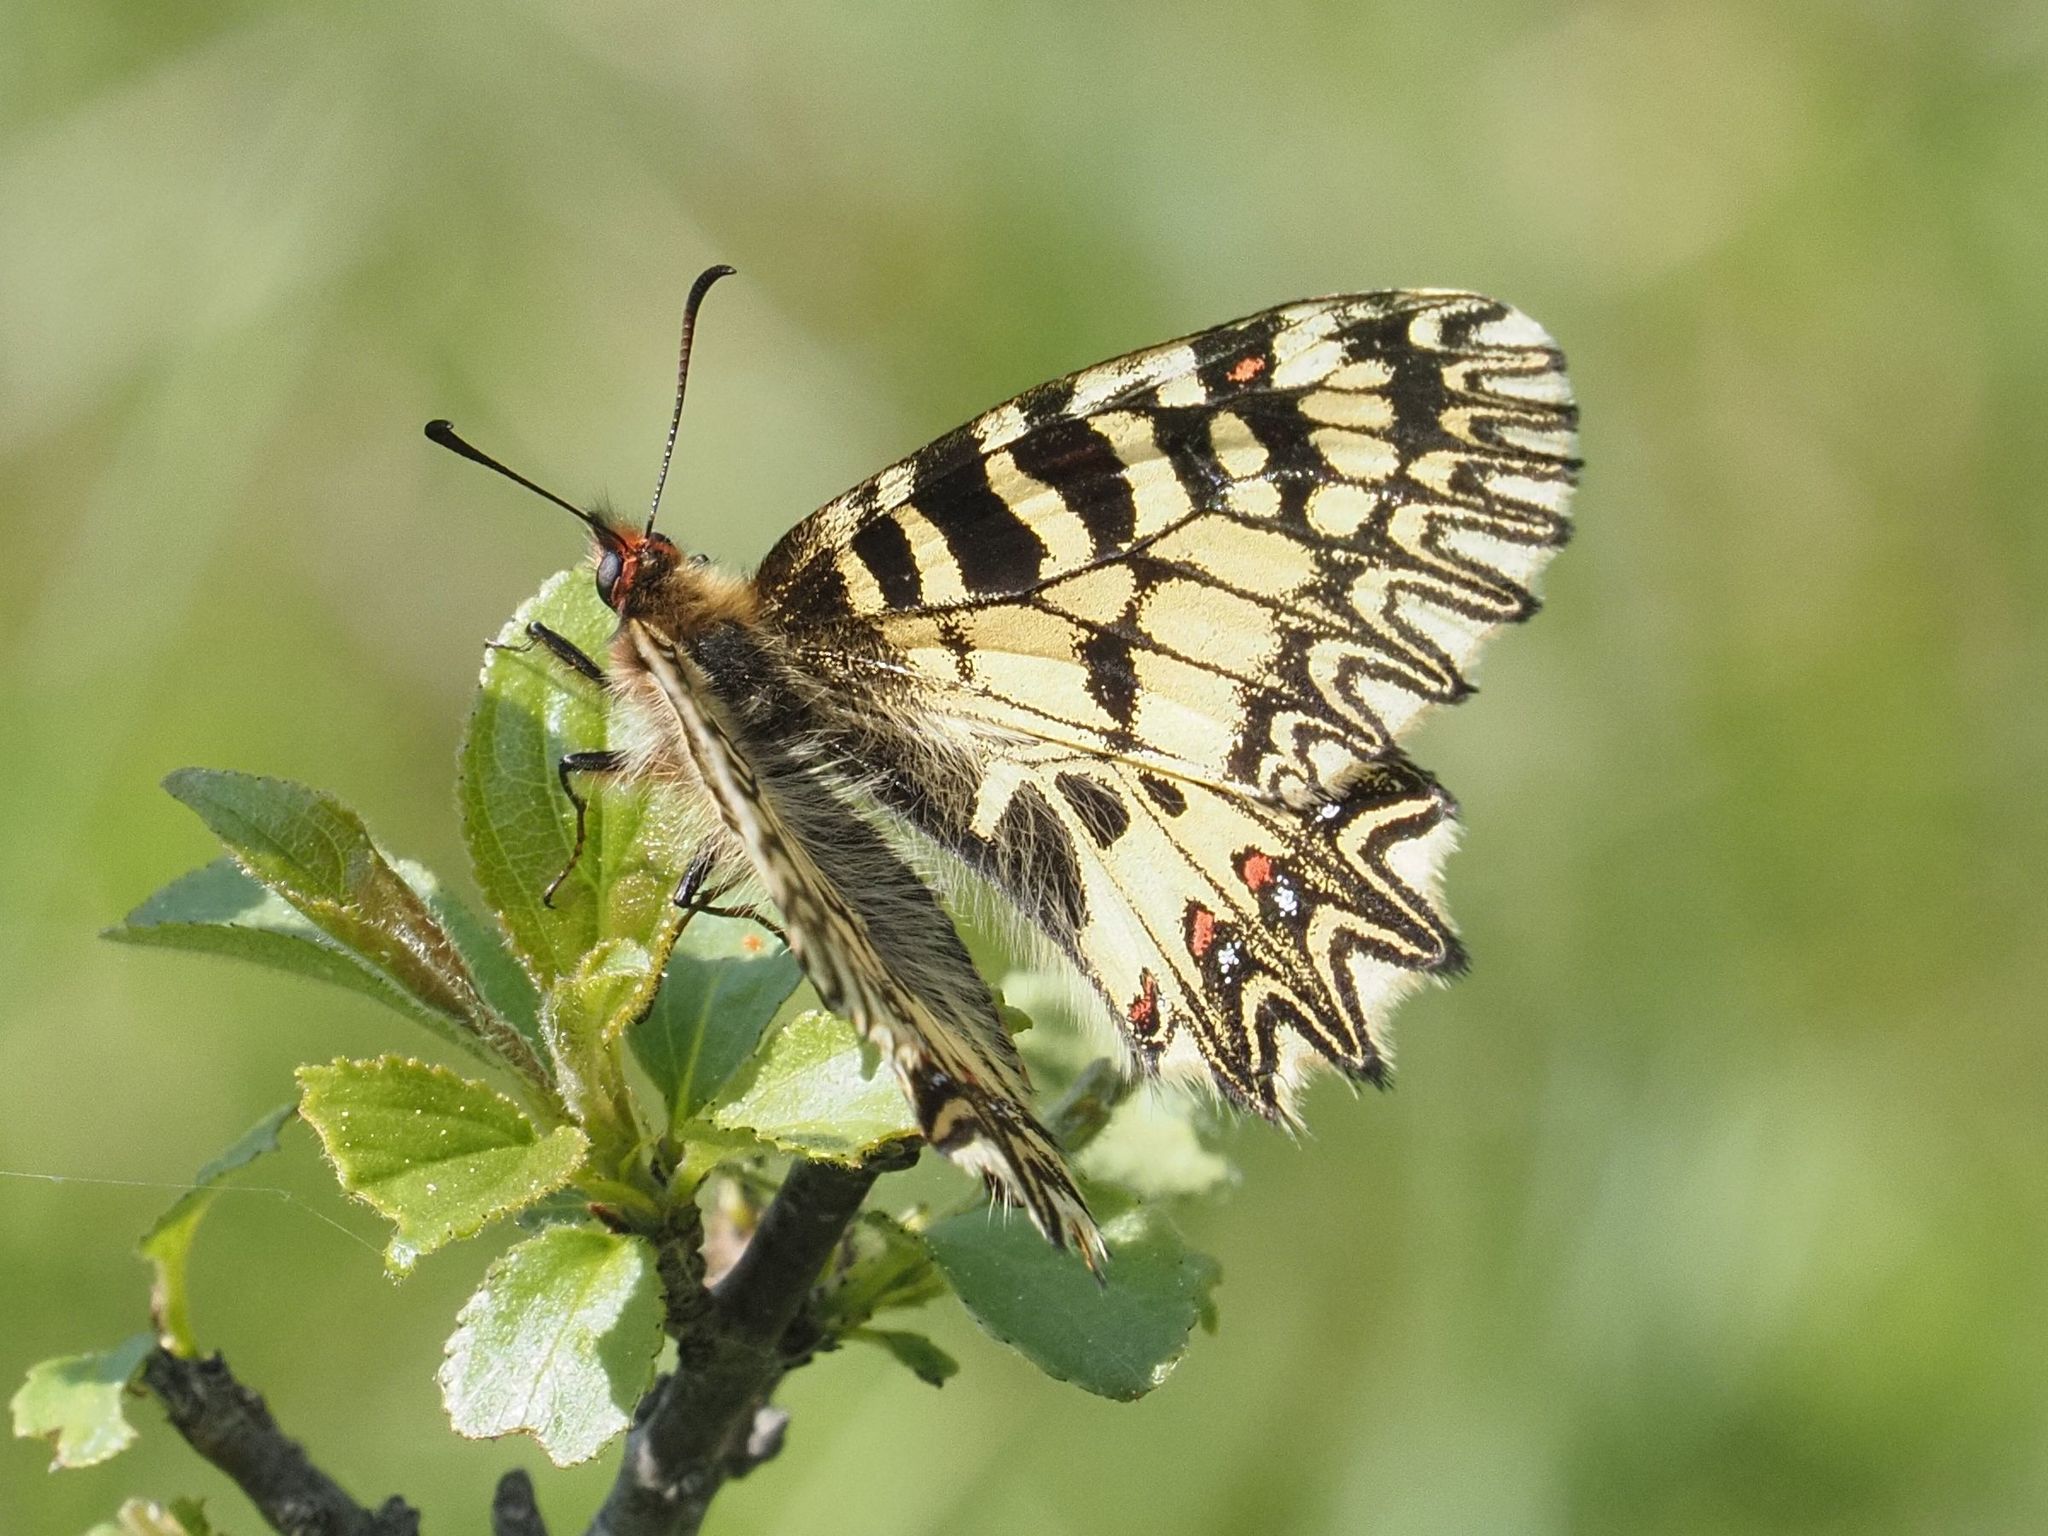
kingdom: Animalia
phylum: Arthropoda
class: Insecta
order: Lepidoptera
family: Papilionidae
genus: Zerynthia
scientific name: Zerynthia polyxena
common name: Southern festoon
